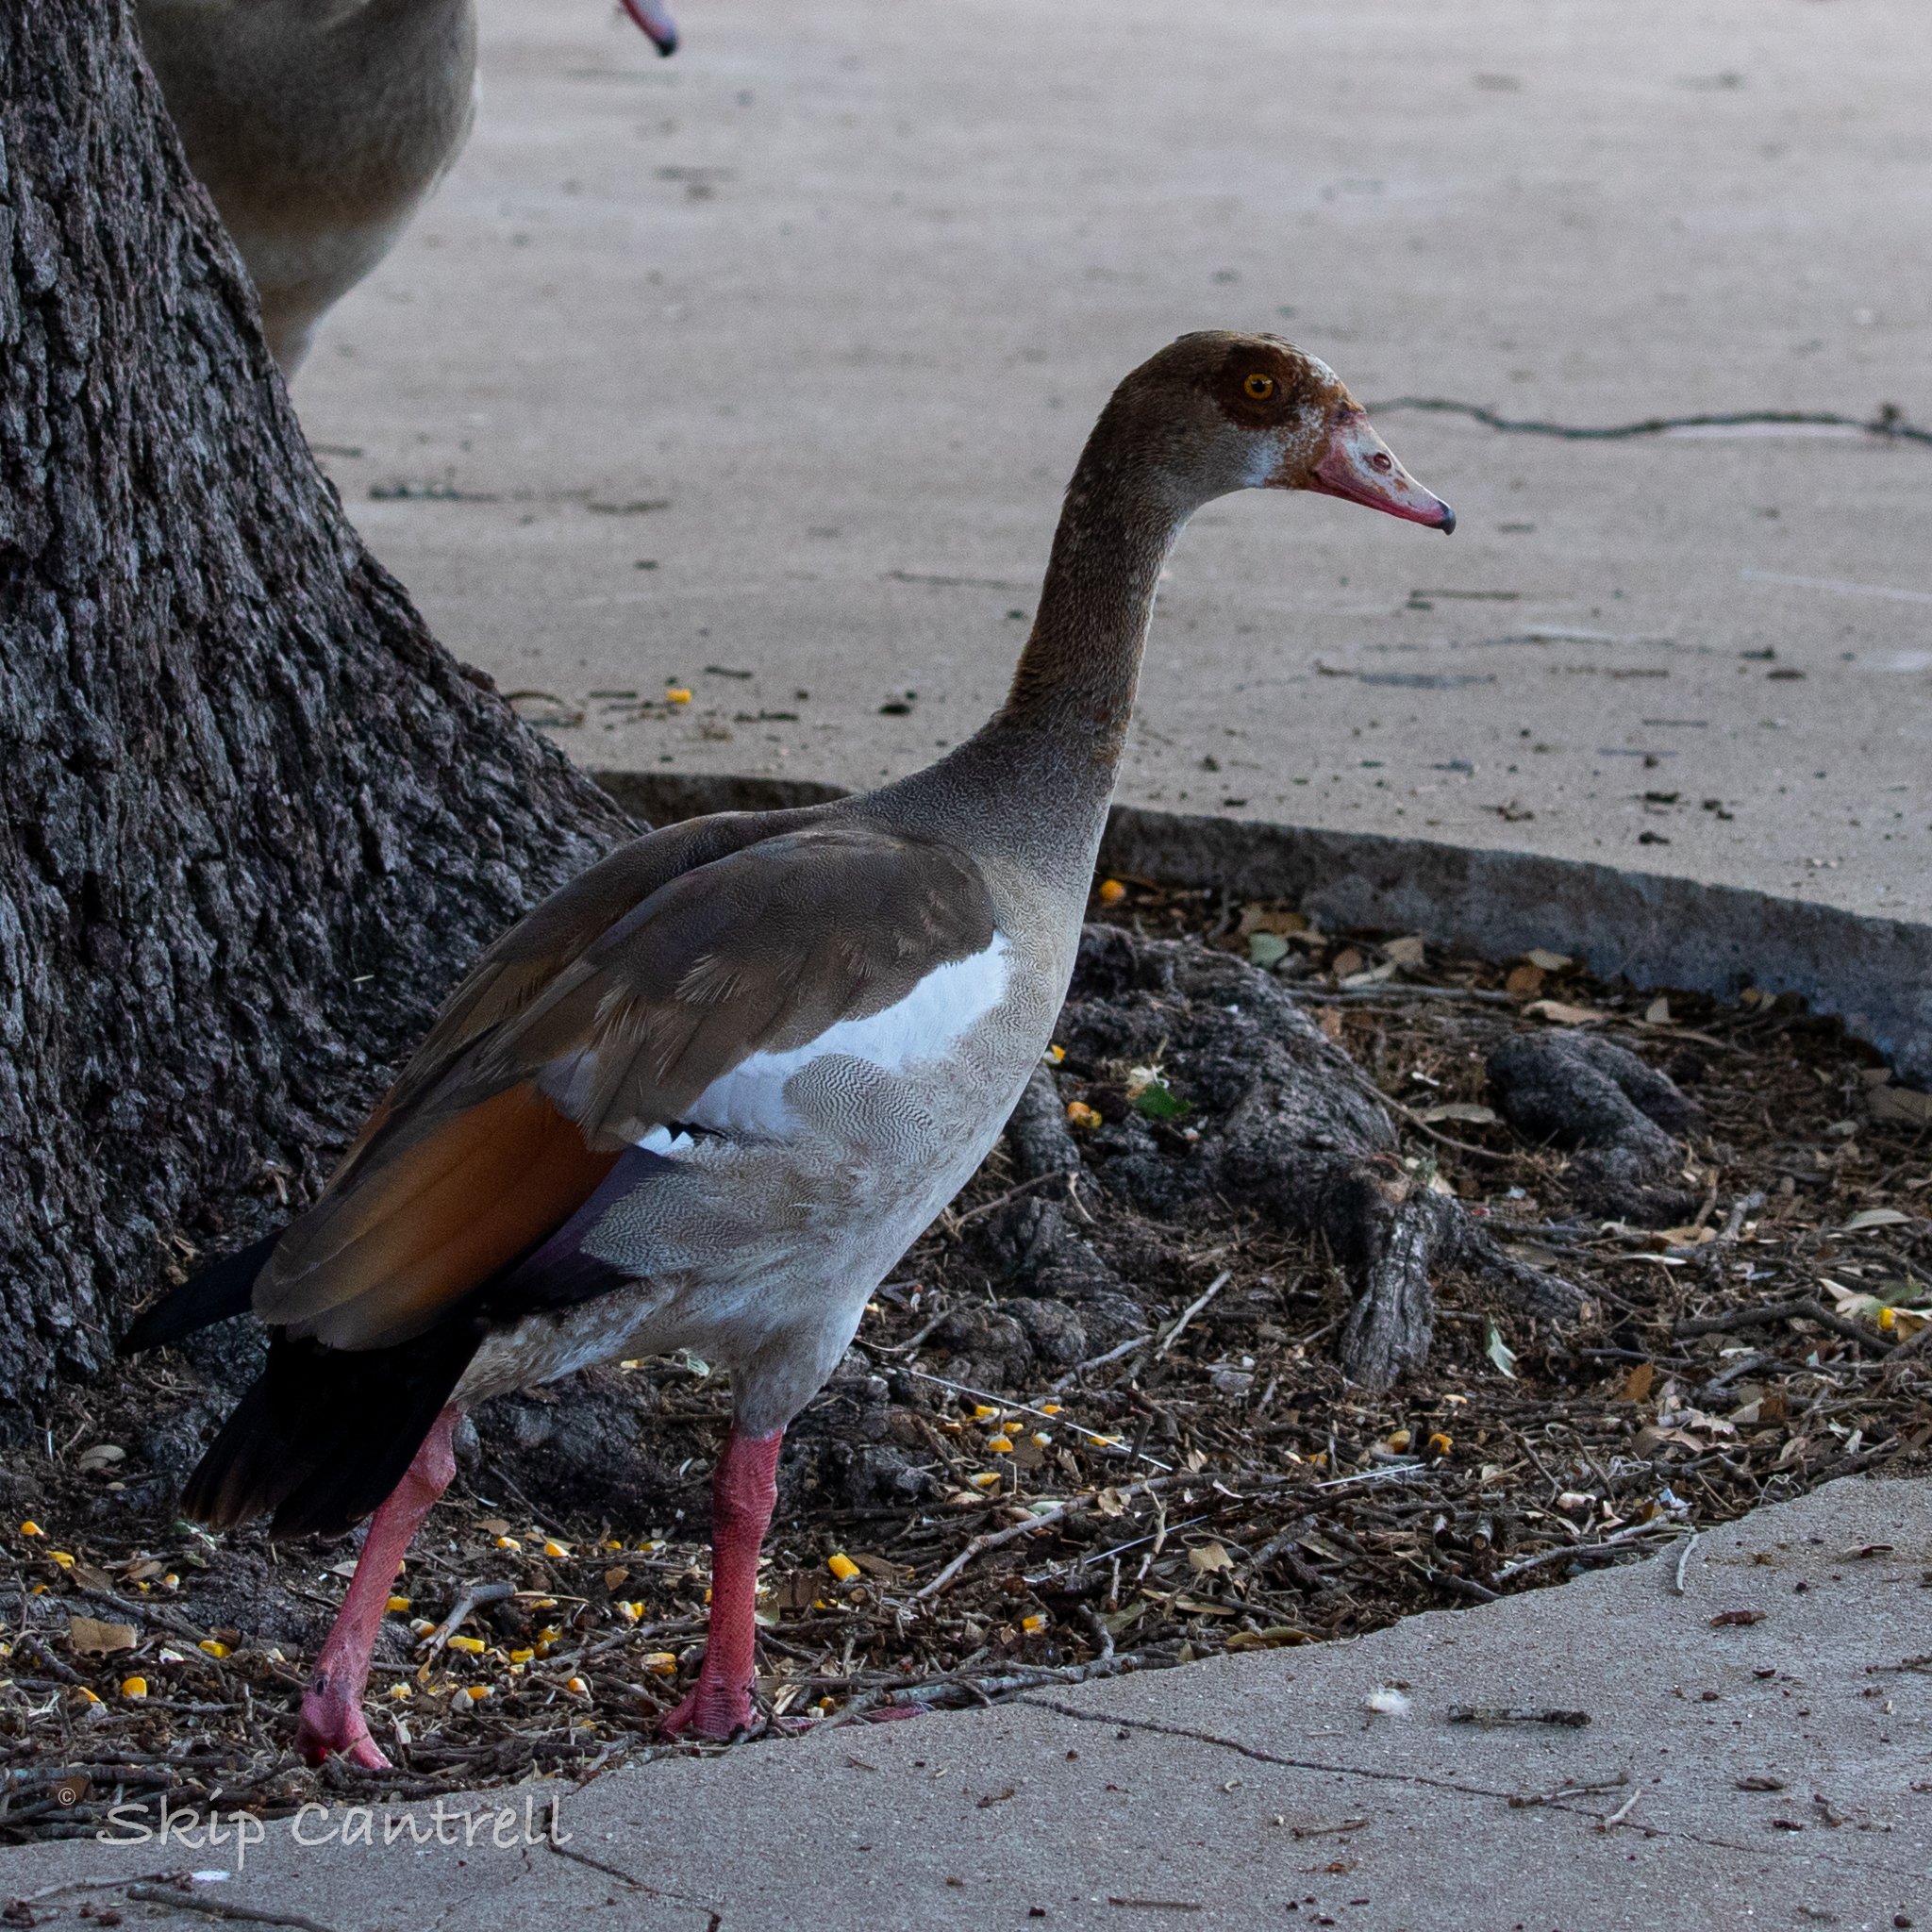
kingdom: Animalia
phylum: Chordata
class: Aves
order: Anseriformes
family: Anatidae
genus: Alopochen
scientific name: Alopochen aegyptiaca
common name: Egyptian goose
